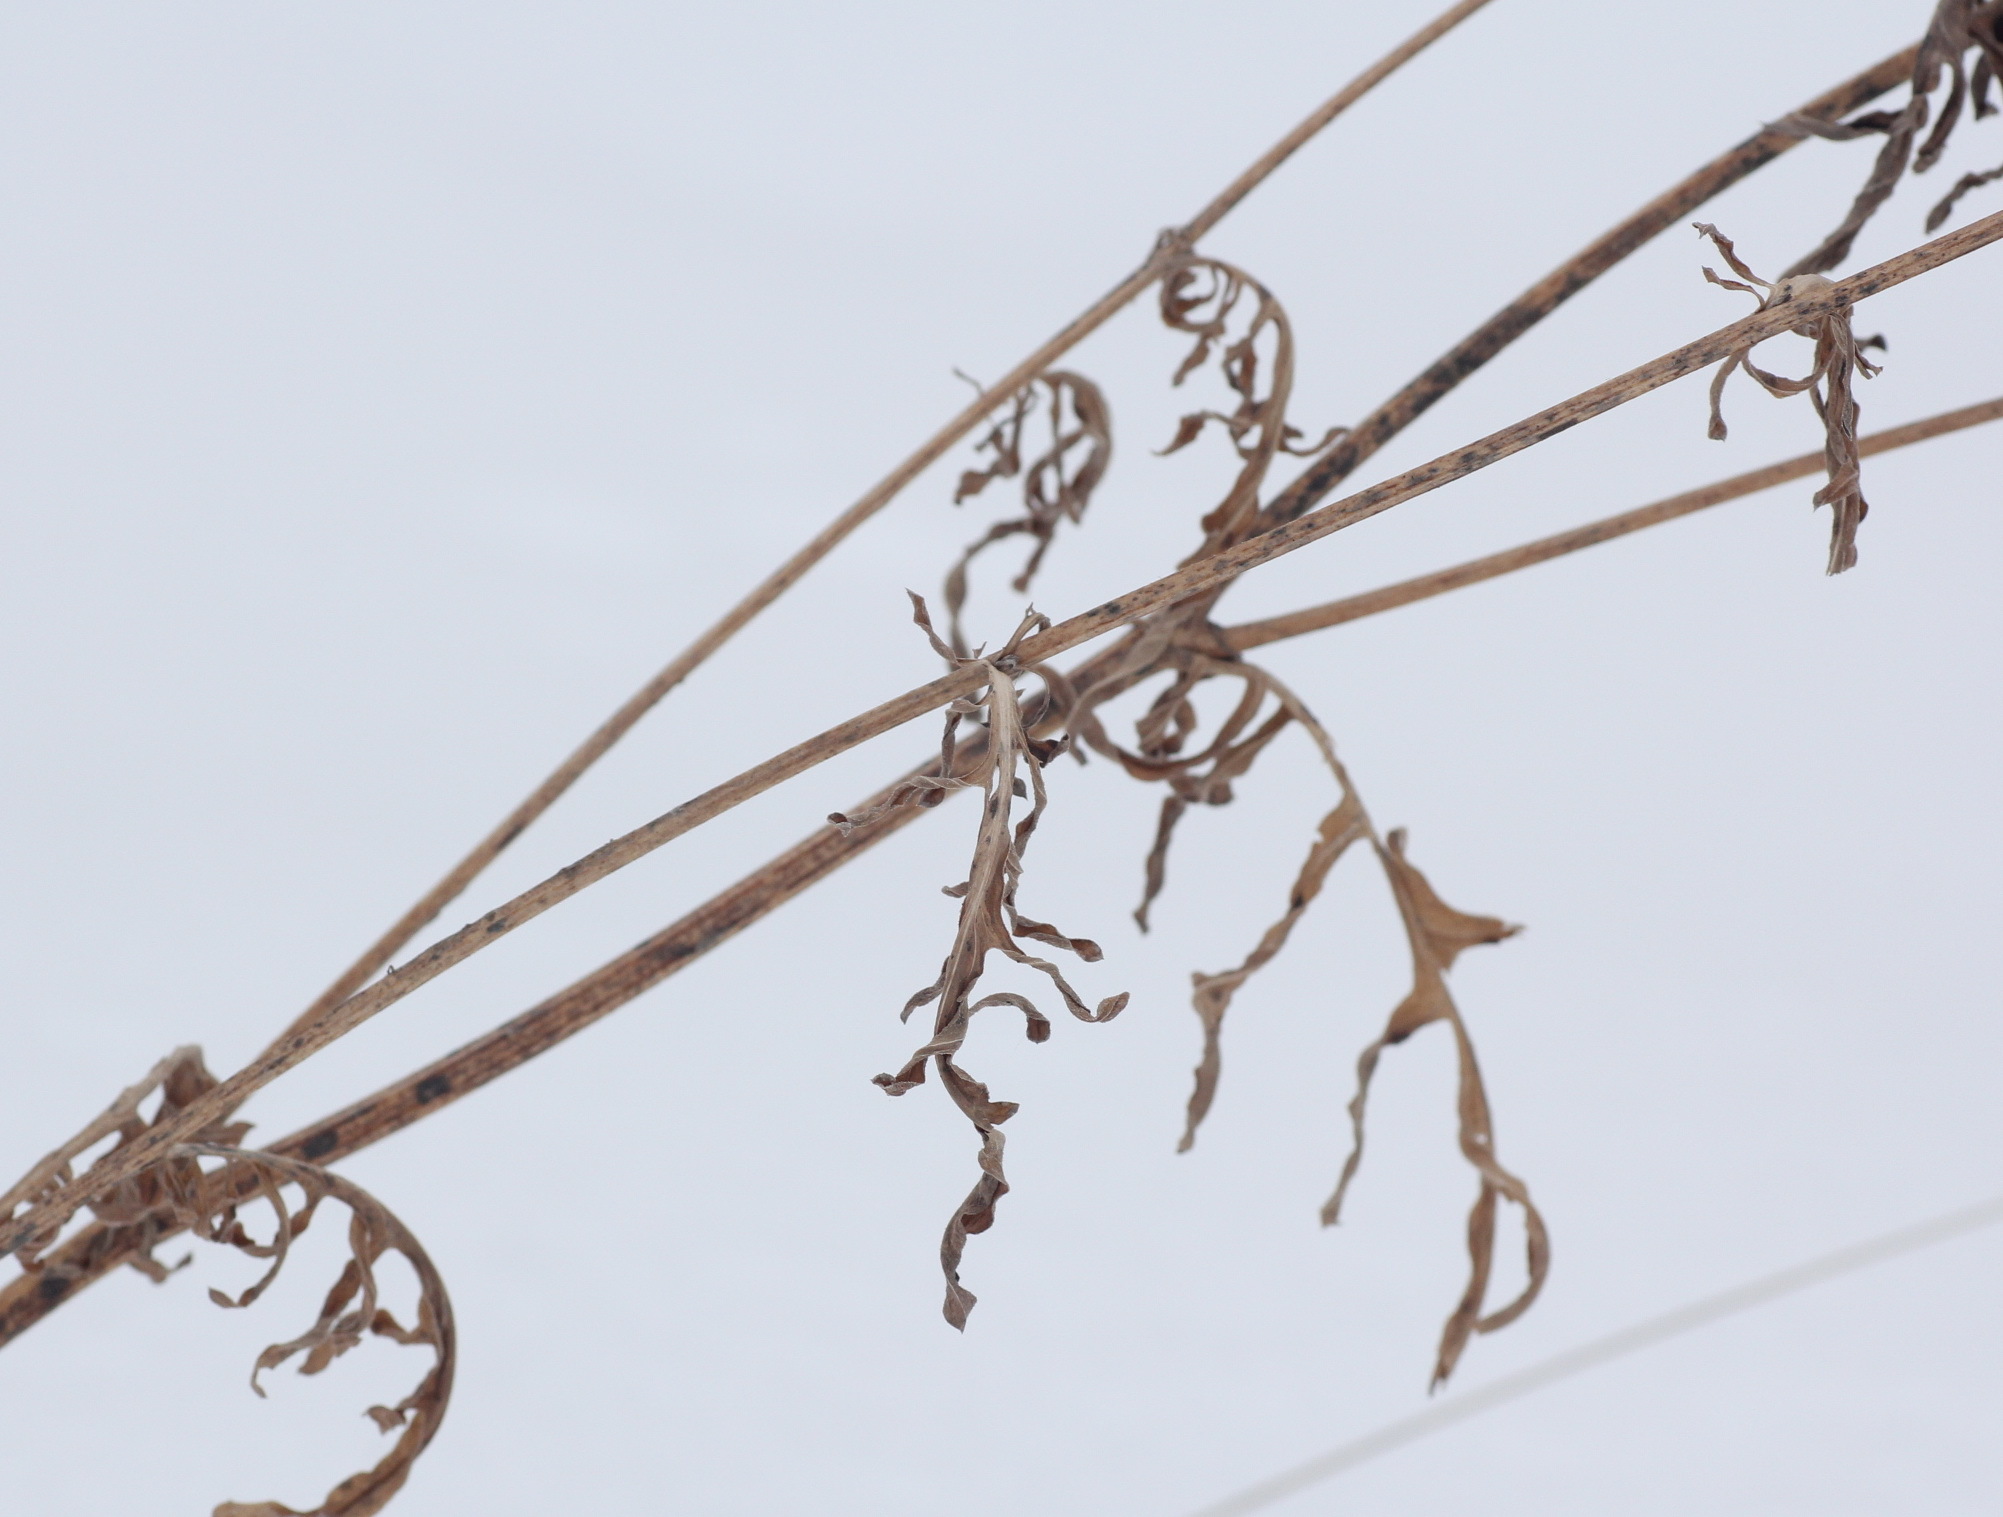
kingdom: Plantae
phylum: Tracheophyta
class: Magnoliopsida
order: Asterales
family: Asteraceae
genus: Centaurea
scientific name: Centaurea scabiosa
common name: Greater knapweed
